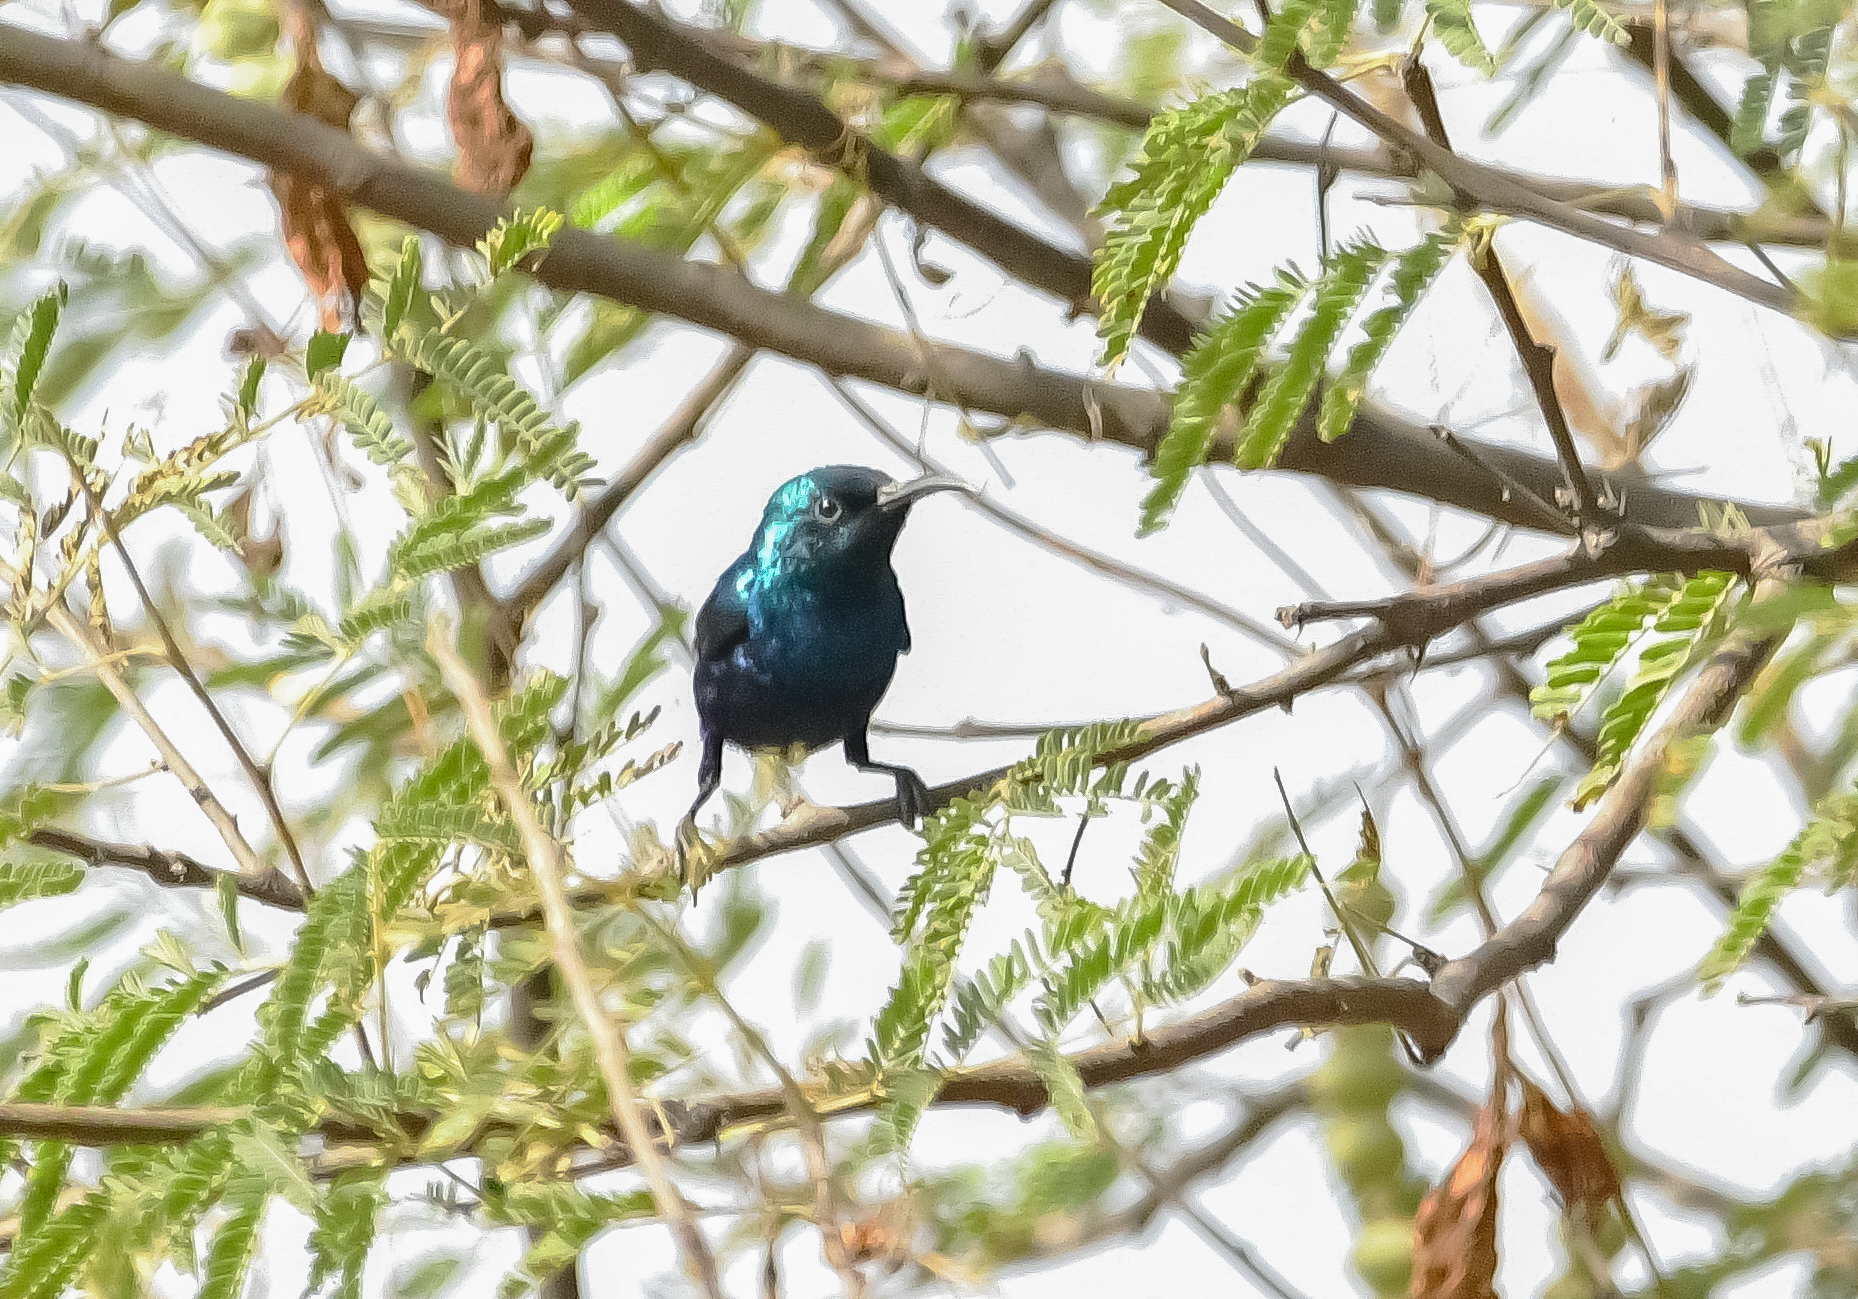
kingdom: Animalia
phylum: Chordata
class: Aves
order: Passeriformes
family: Nectariniidae
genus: Cinnyris
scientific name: Cinnyris asiaticus
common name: Purple sunbird
